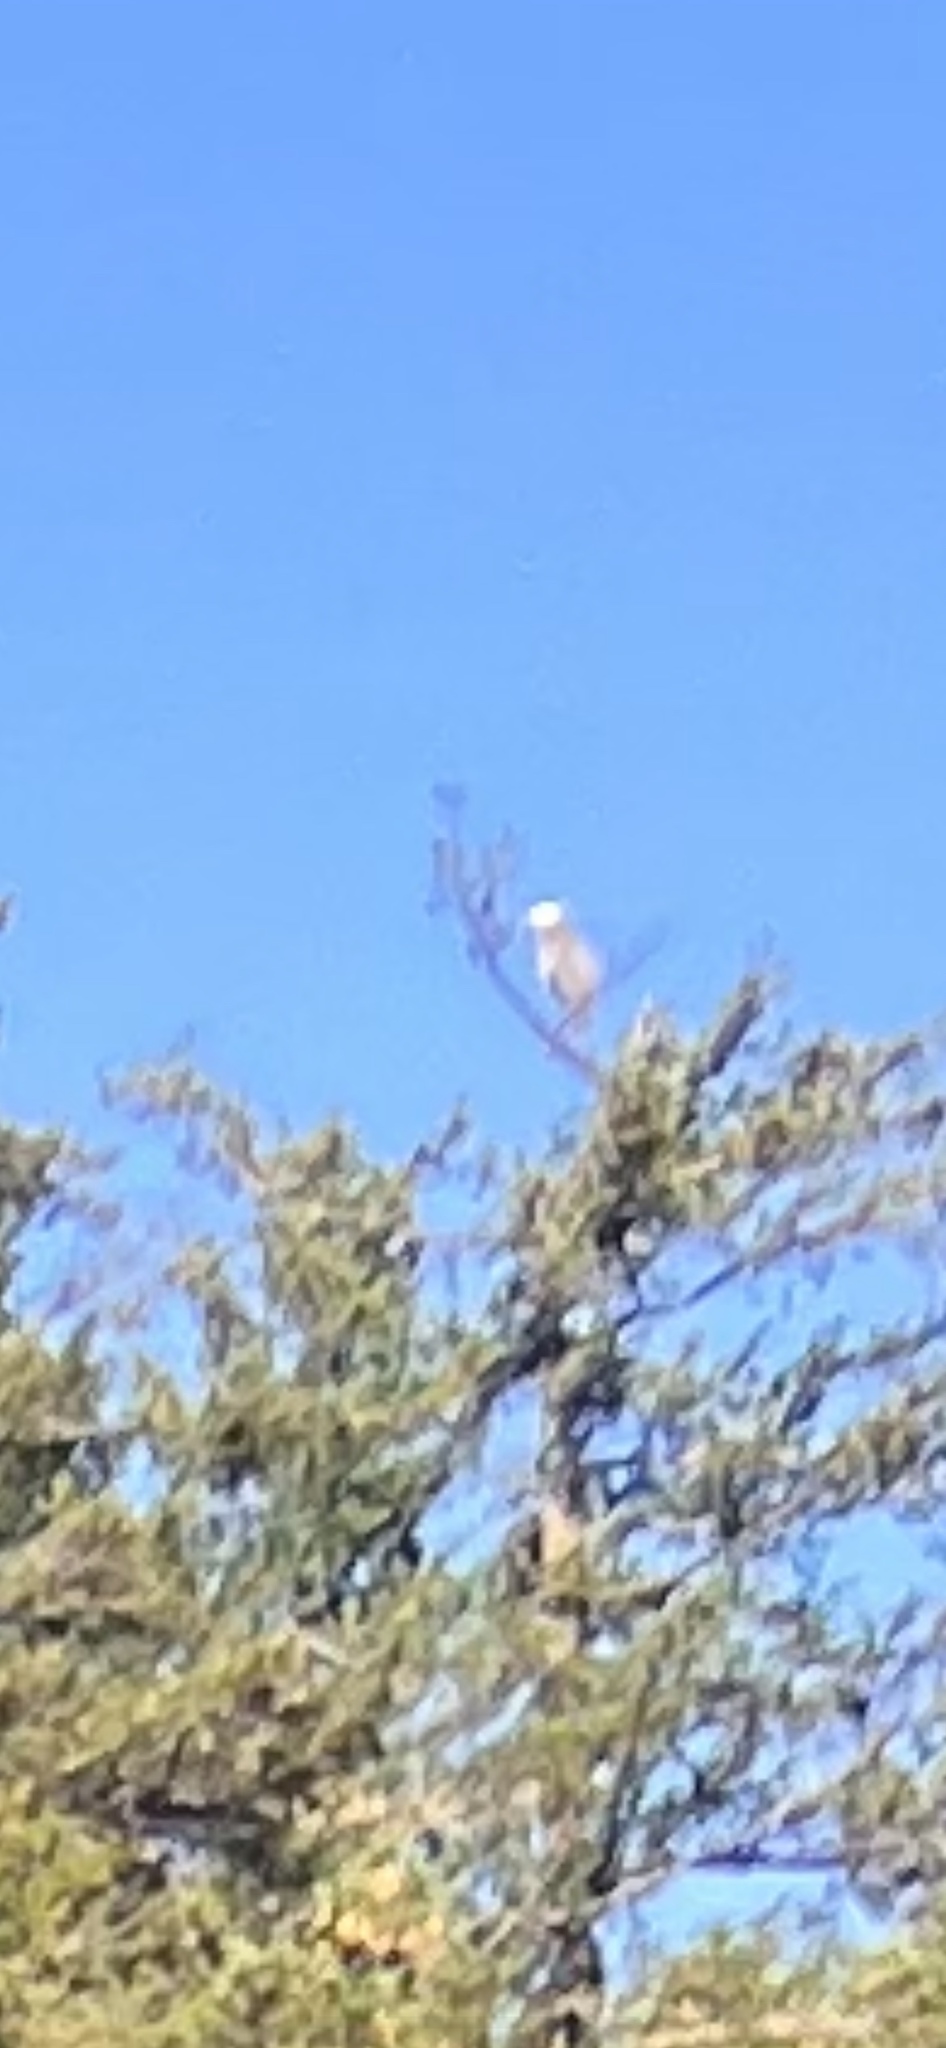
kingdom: Animalia
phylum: Chordata
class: Aves
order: Pelecaniformes
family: Ardeidae
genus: Ardea
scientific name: Ardea herodias
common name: Great blue heron
